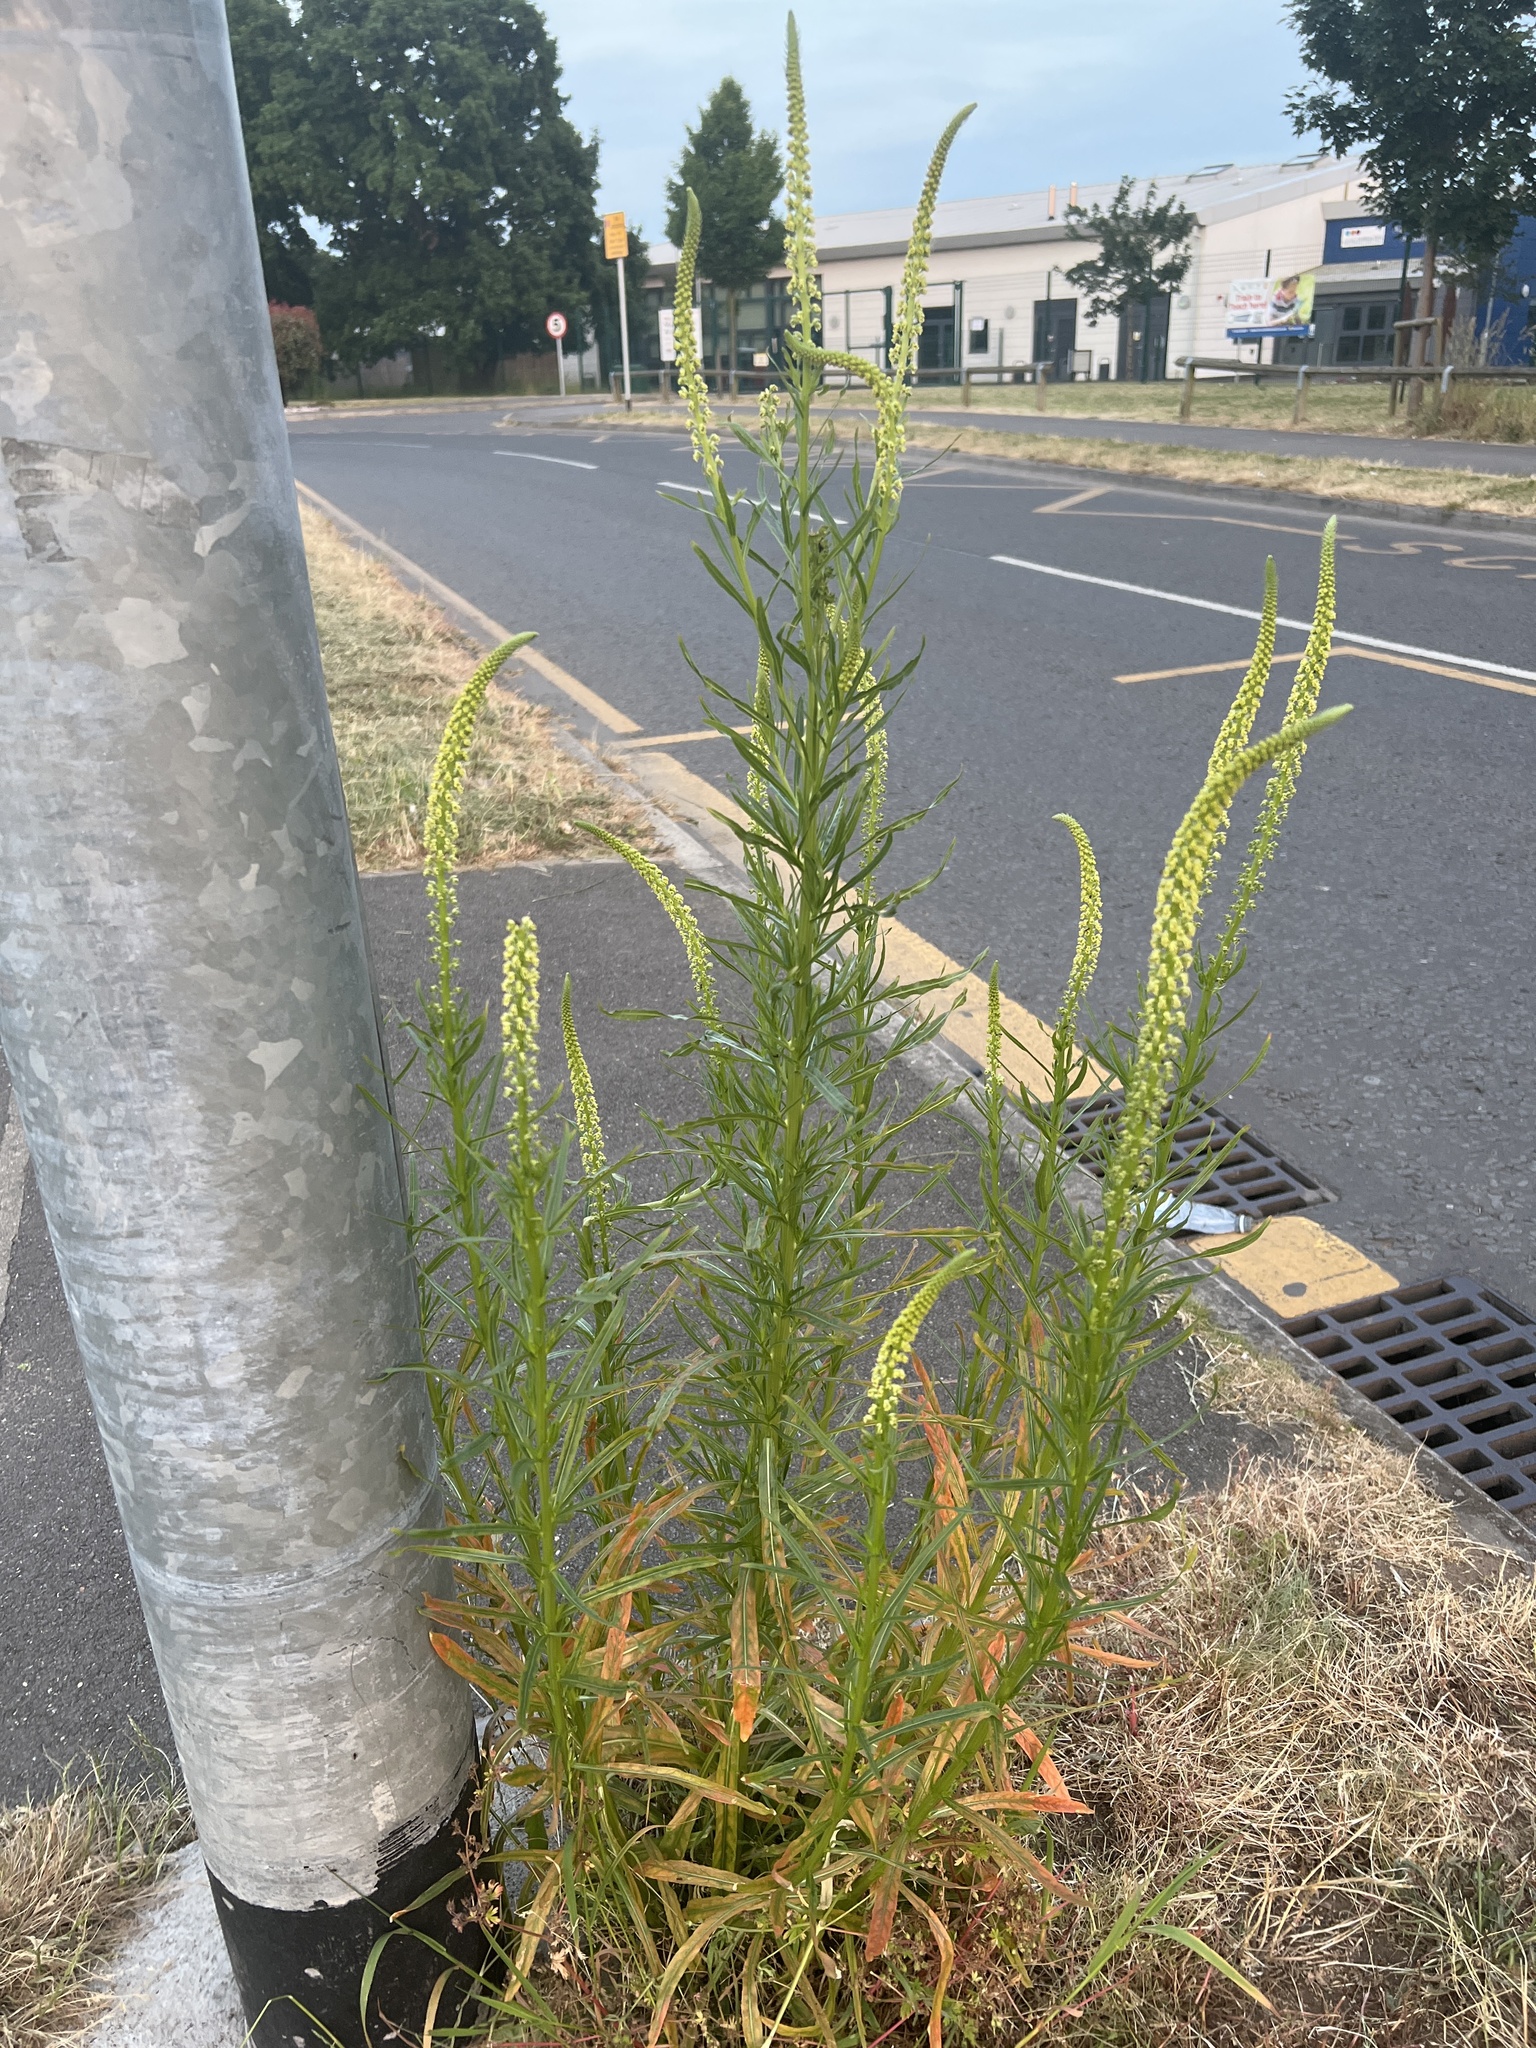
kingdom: Plantae
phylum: Tracheophyta
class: Magnoliopsida
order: Brassicales
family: Resedaceae
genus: Reseda
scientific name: Reseda luteola
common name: Weld
